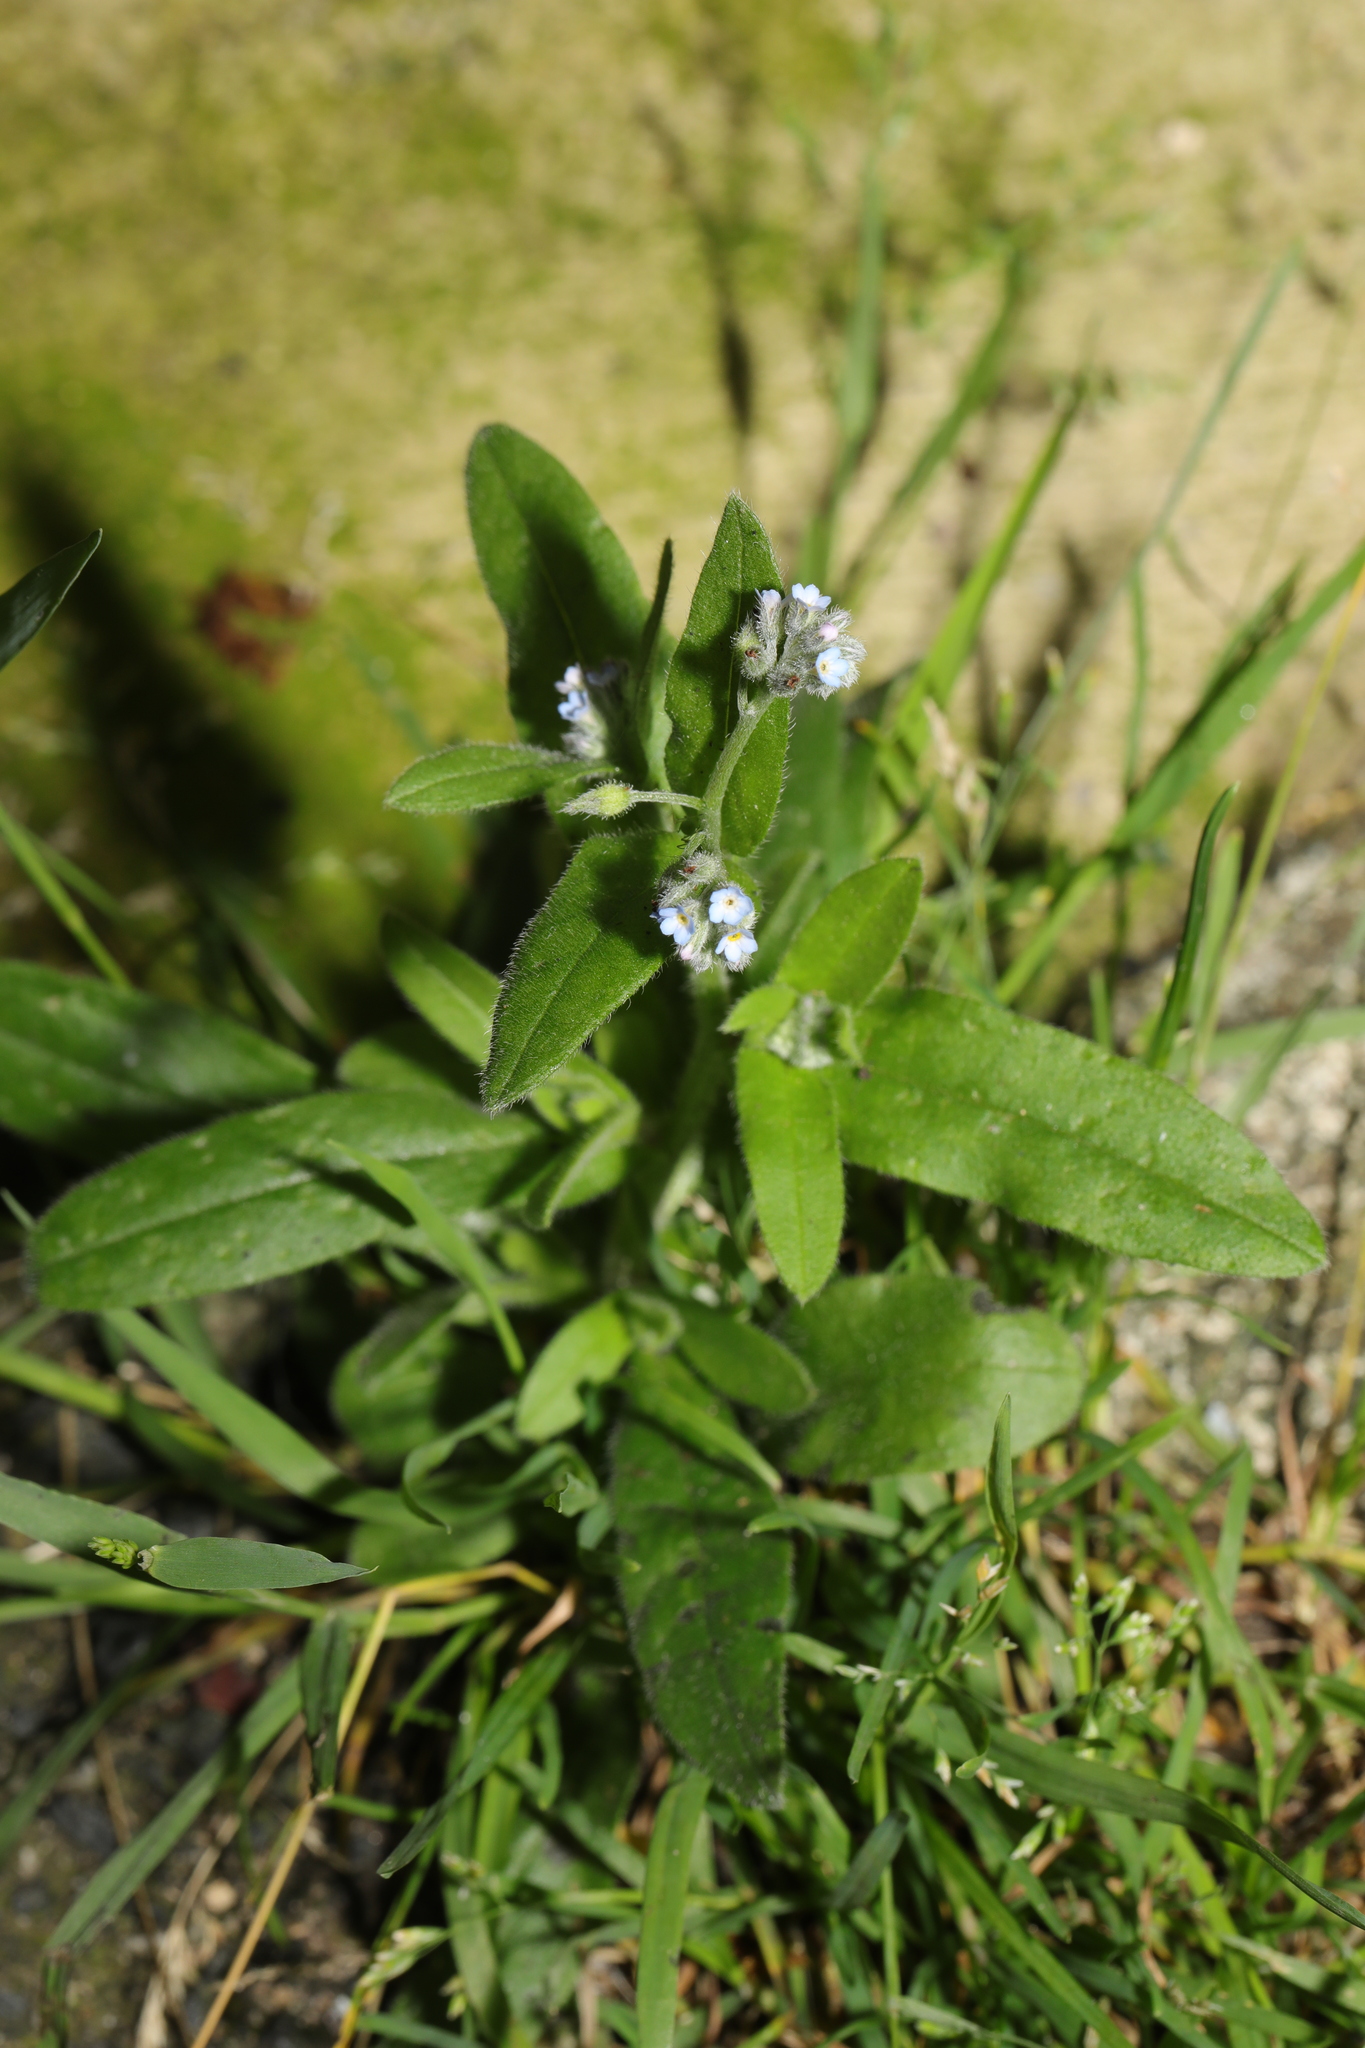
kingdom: Plantae
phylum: Tracheophyta
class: Magnoliopsida
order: Boraginales
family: Boraginaceae
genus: Myosotis
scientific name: Myosotis arvensis
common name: Field forget-me-not
